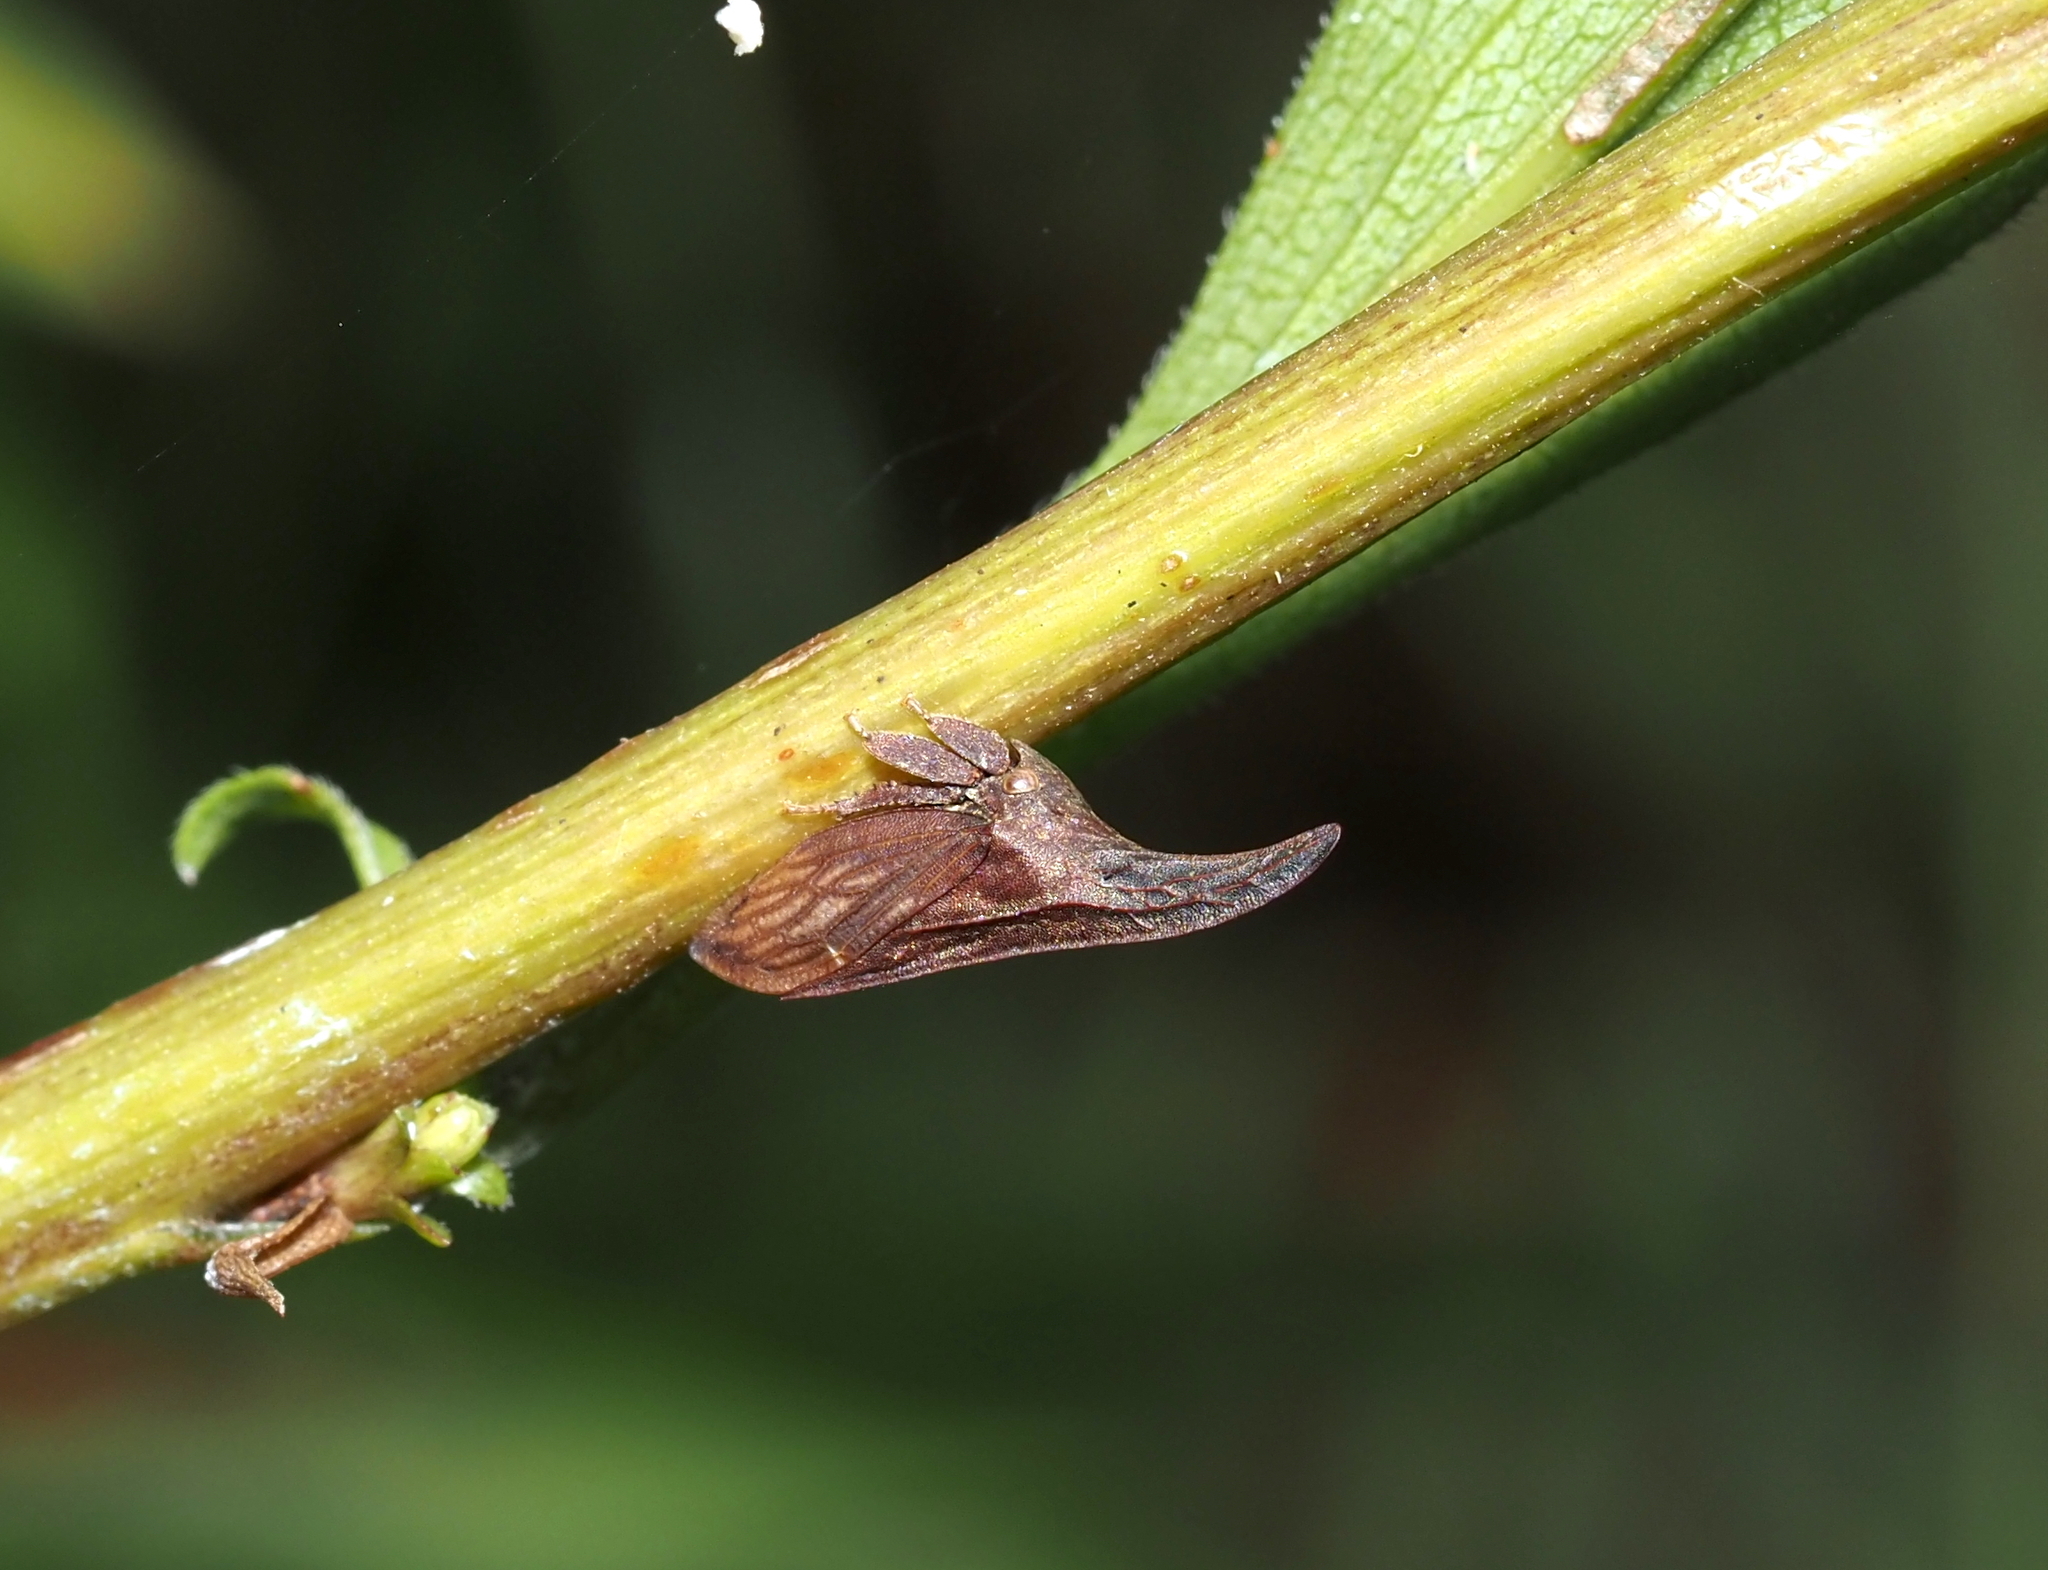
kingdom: Animalia
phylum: Arthropoda
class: Insecta
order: Hemiptera
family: Membracidae
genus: Enchenopa
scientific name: Enchenopa latipes
